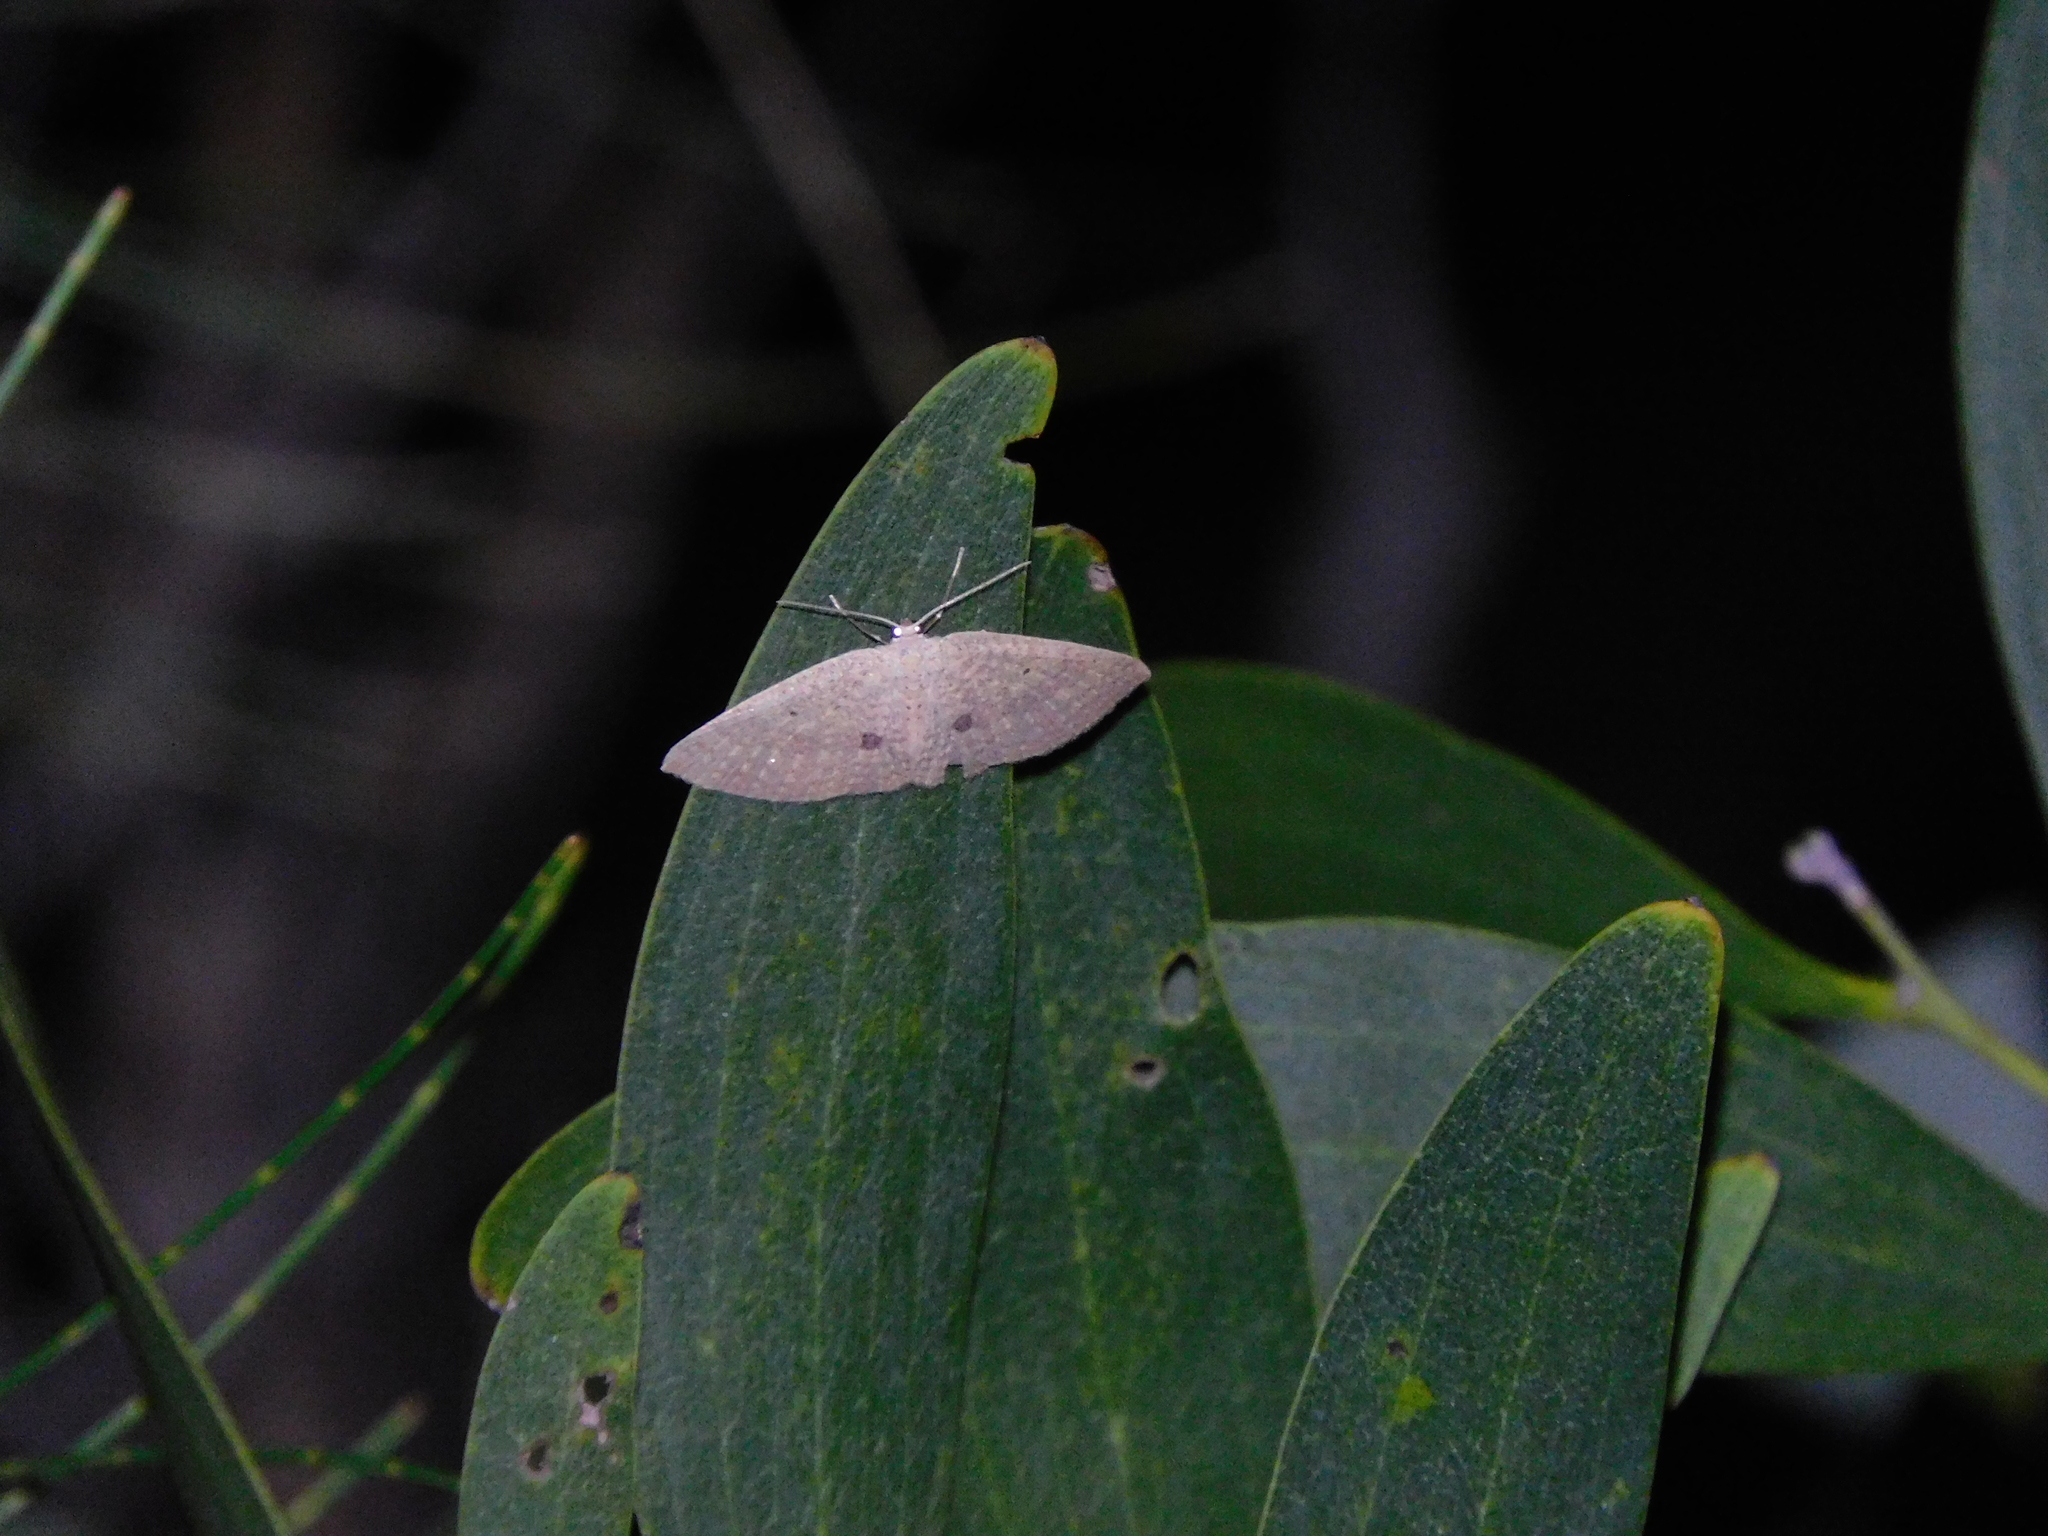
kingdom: Animalia
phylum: Arthropoda
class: Insecta
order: Lepidoptera
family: Geometridae
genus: Poecilasthena
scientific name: Poecilasthena anthodes
